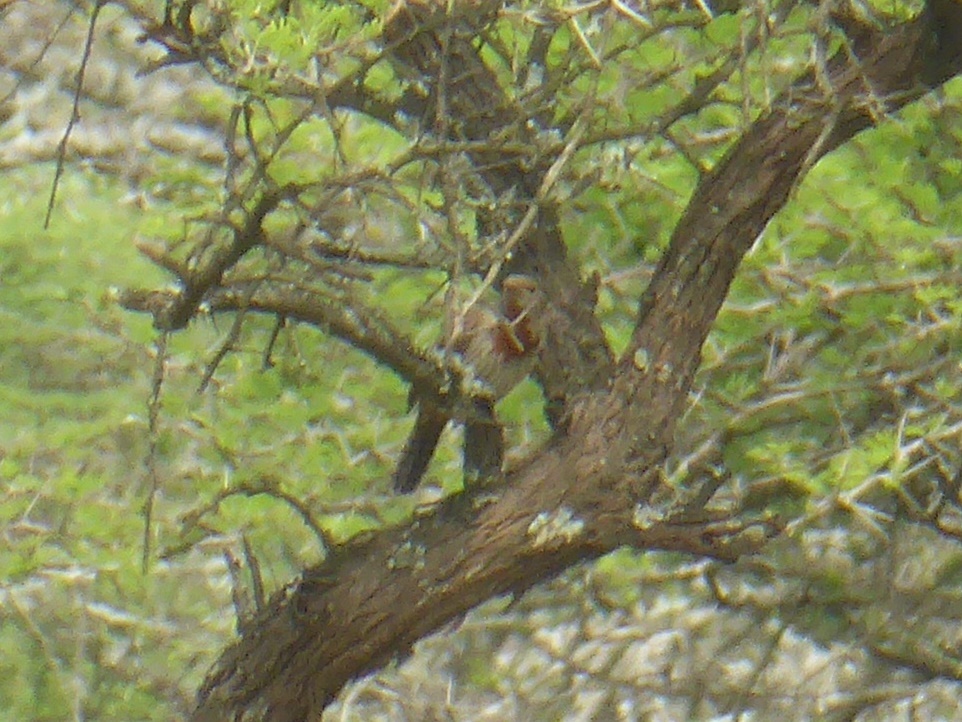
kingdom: Animalia
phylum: Chordata
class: Aves
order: Piciformes
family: Picidae
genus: Jynx
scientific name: Jynx ruficollis
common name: Red-throated wryneck
